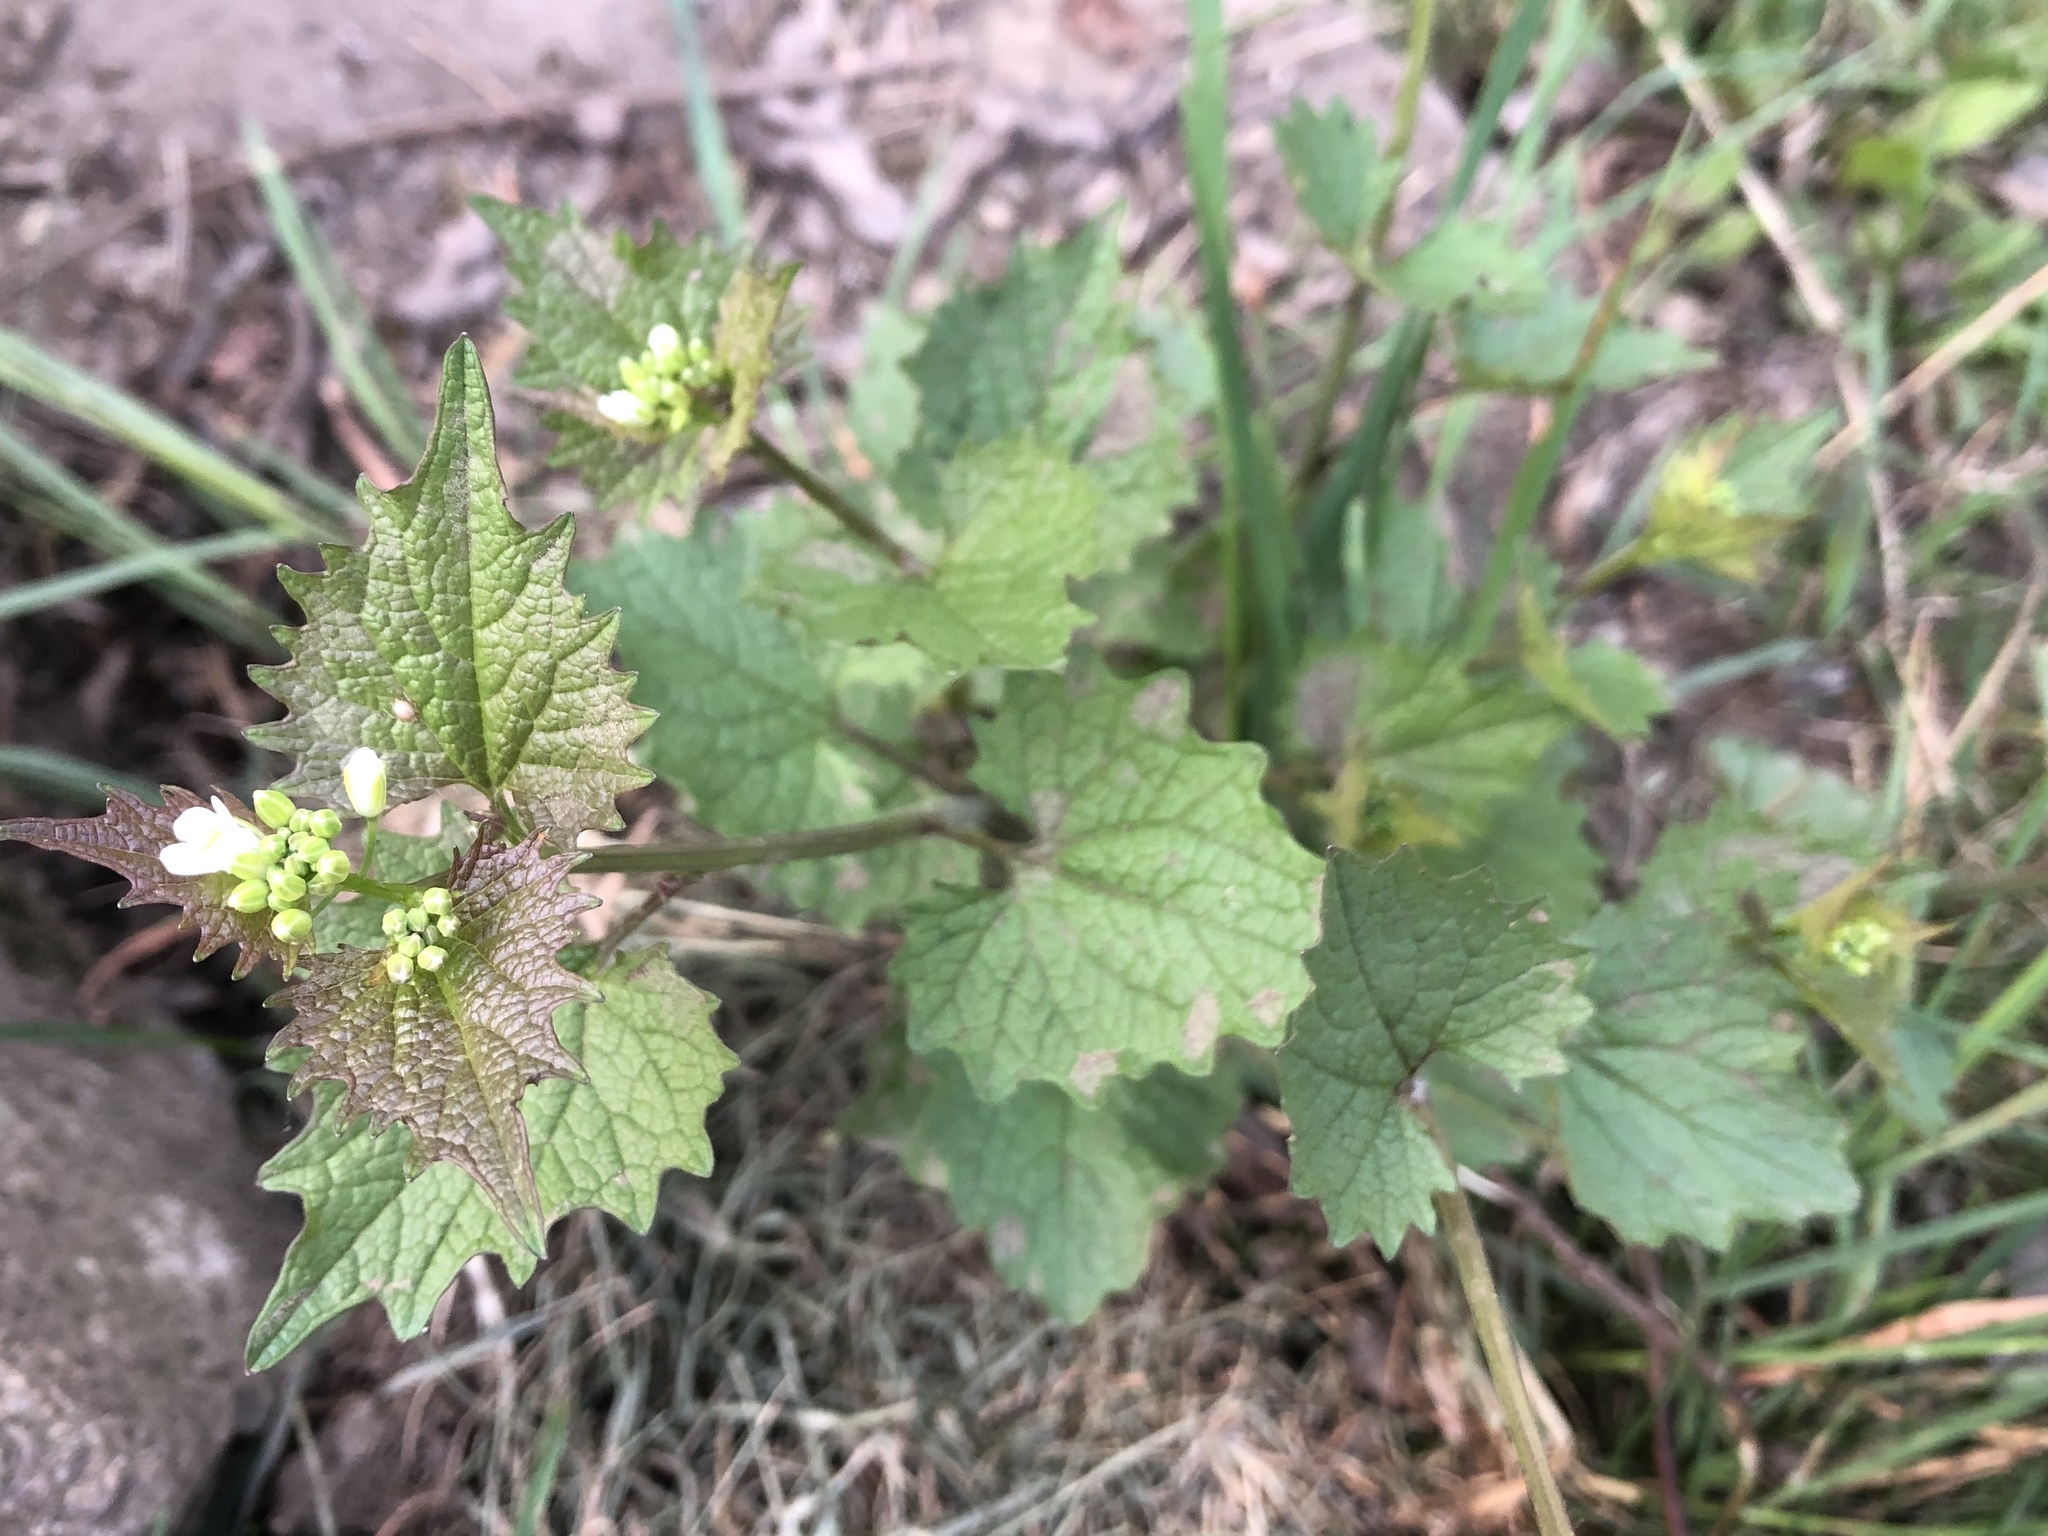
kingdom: Plantae
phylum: Tracheophyta
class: Magnoliopsida
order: Brassicales
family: Brassicaceae
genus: Alliaria
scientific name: Alliaria petiolata
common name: Garlic mustard
